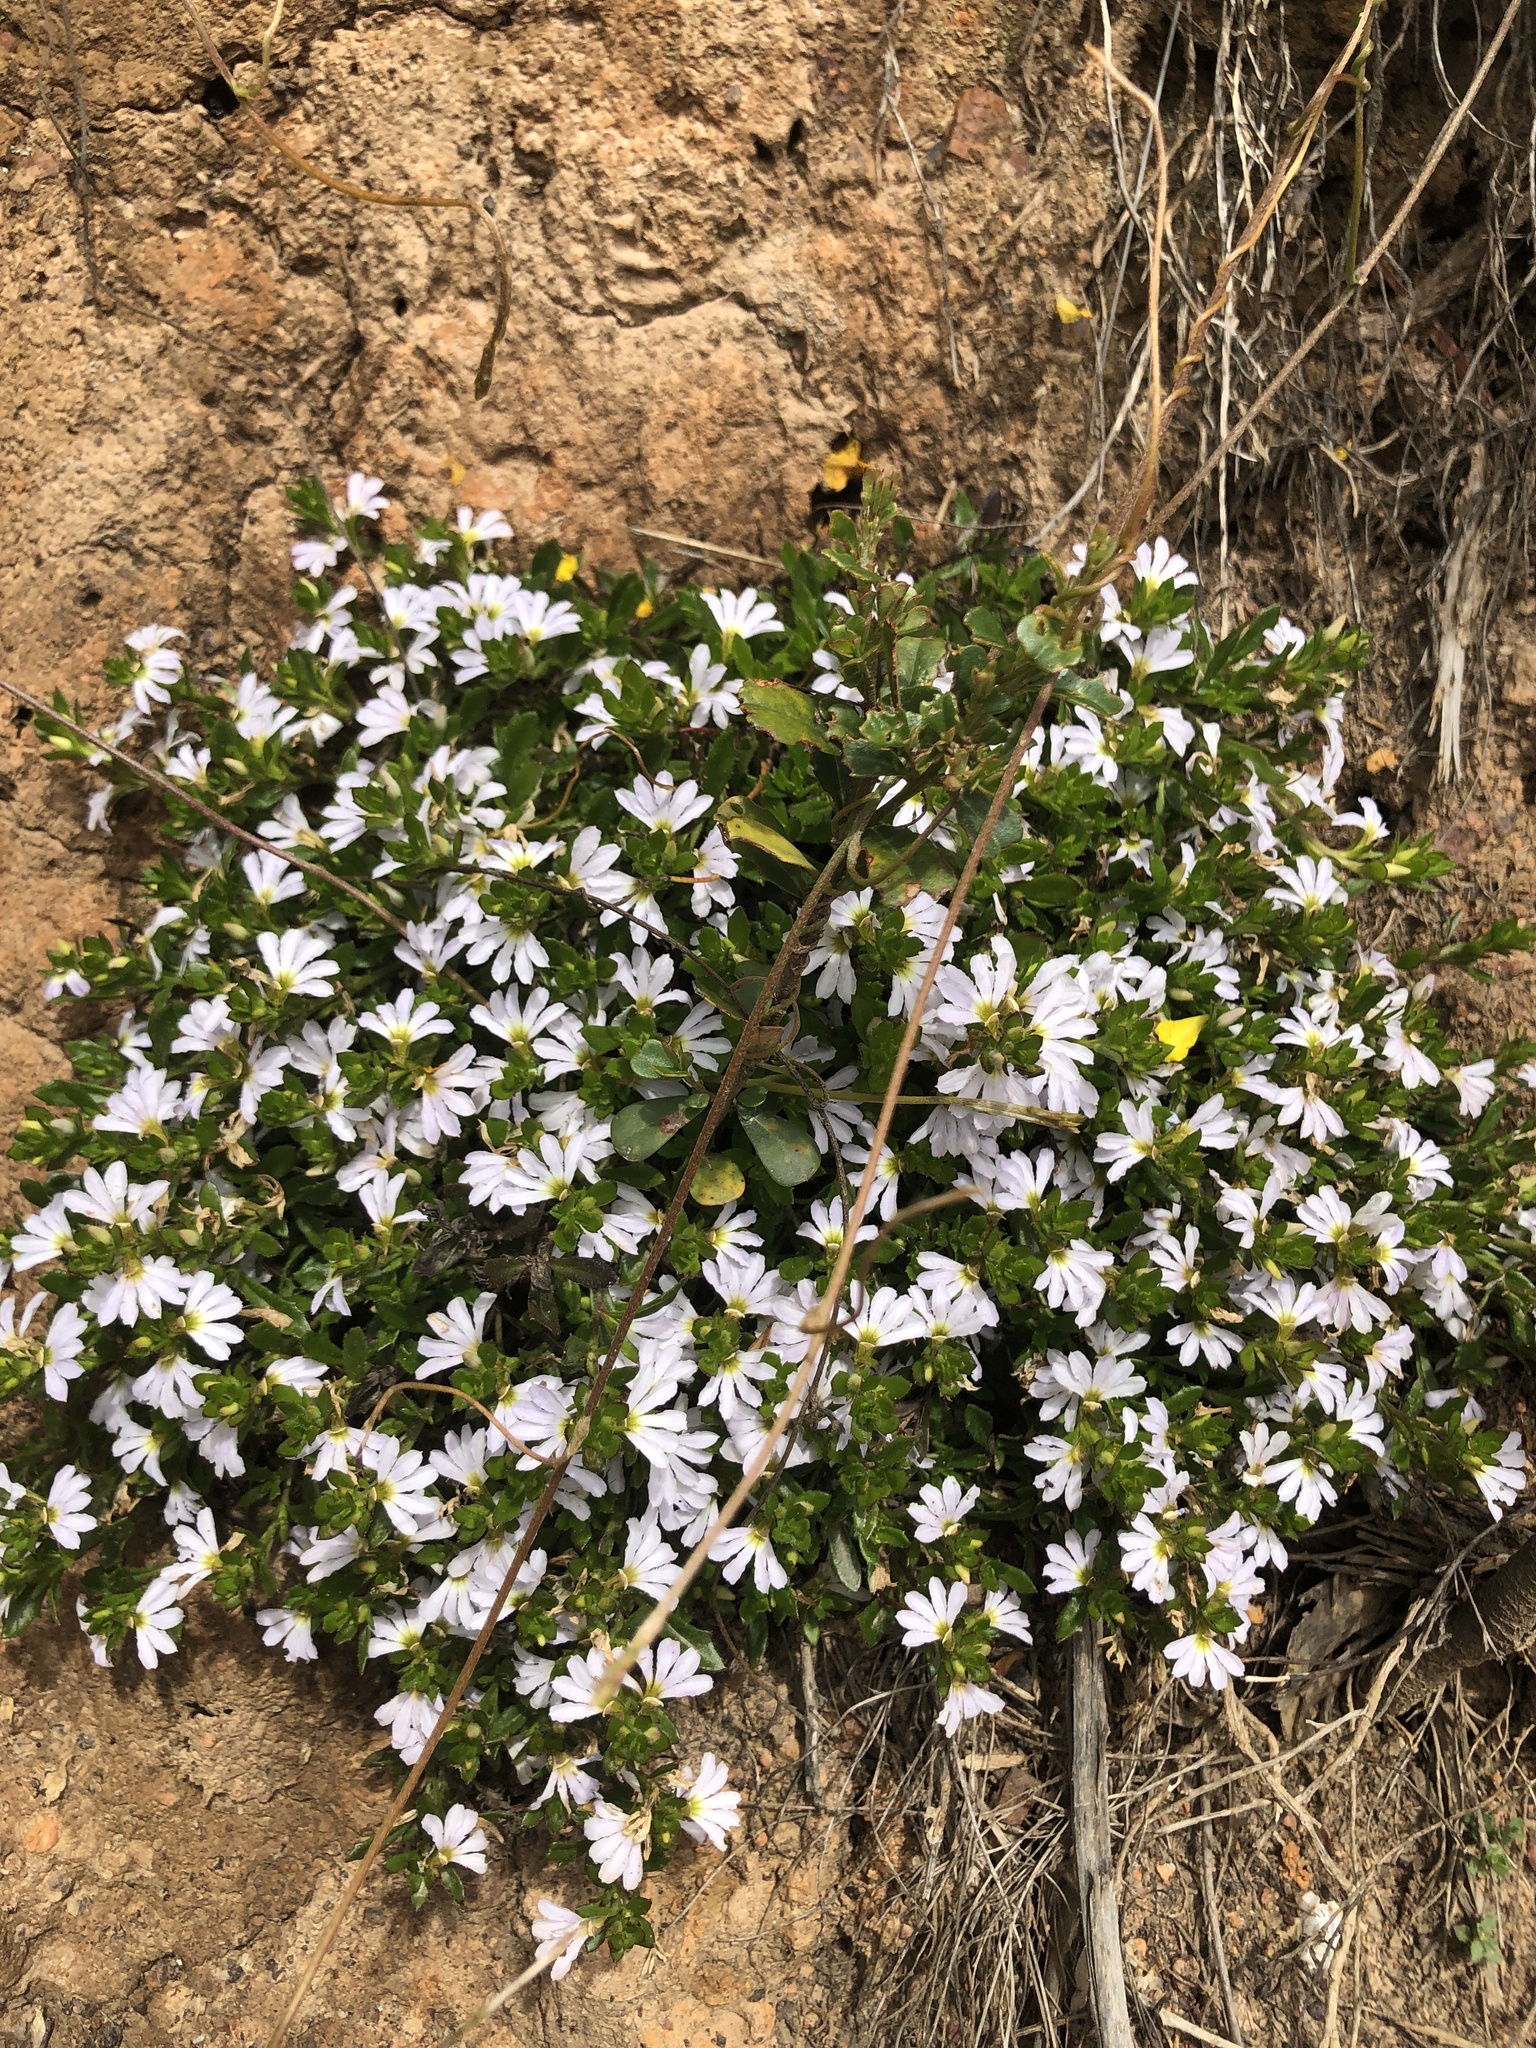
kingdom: Plantae
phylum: Tracheophyta
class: Magnoliopsida
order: Asterales
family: Goodeniaceae
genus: Scaevola
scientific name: Scaevola albida
